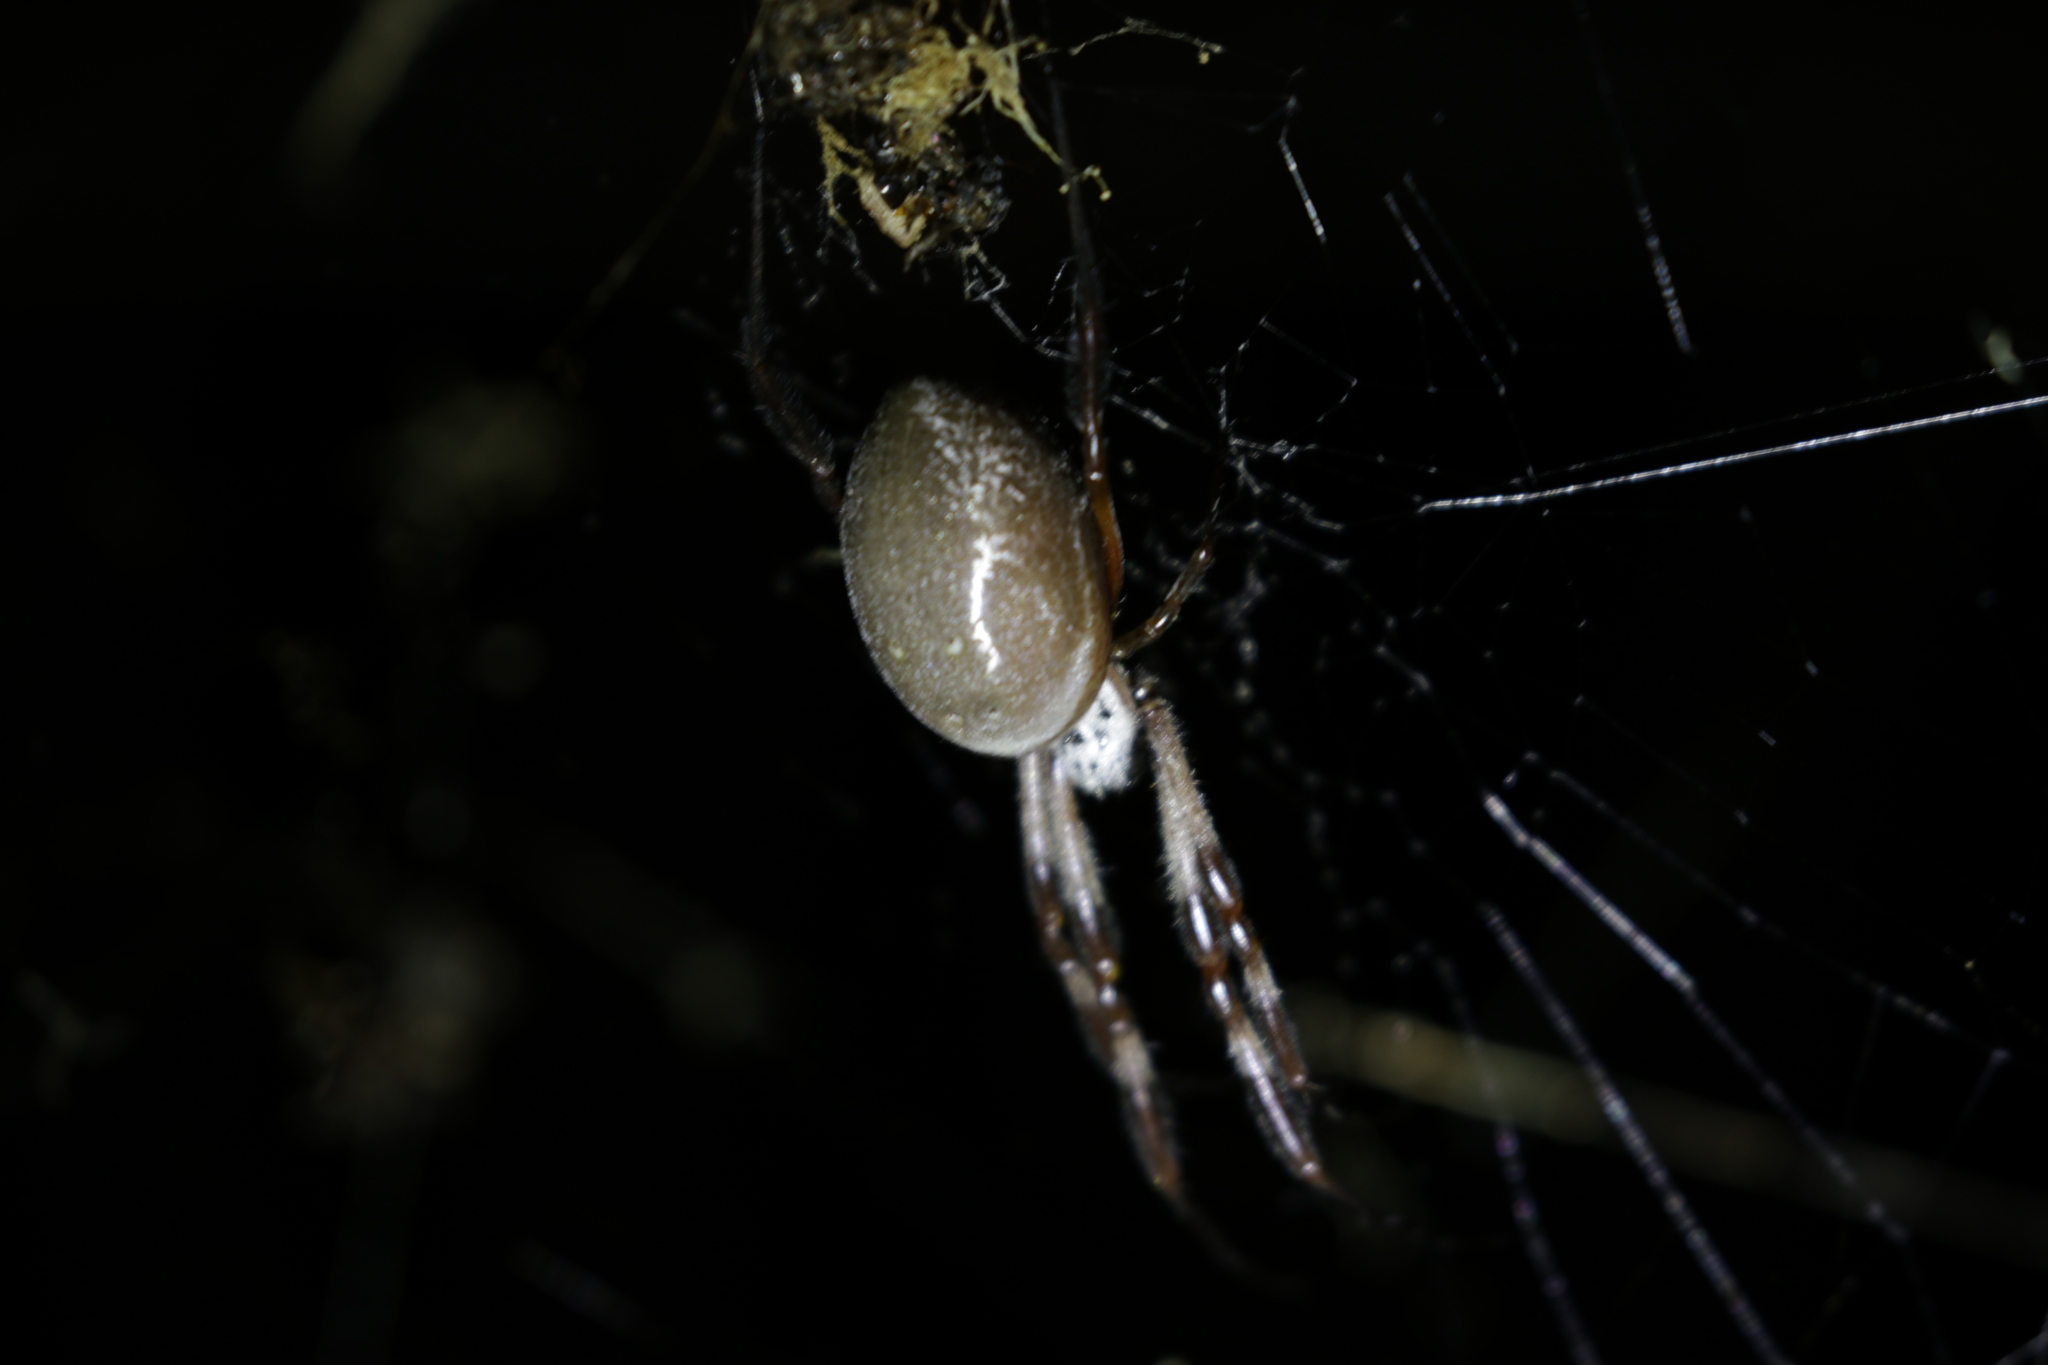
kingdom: Animalia
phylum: Arthropoda
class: Arachnida
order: Araneae
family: Araneidae
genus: Trichonephila
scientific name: Trichonephila edulis
